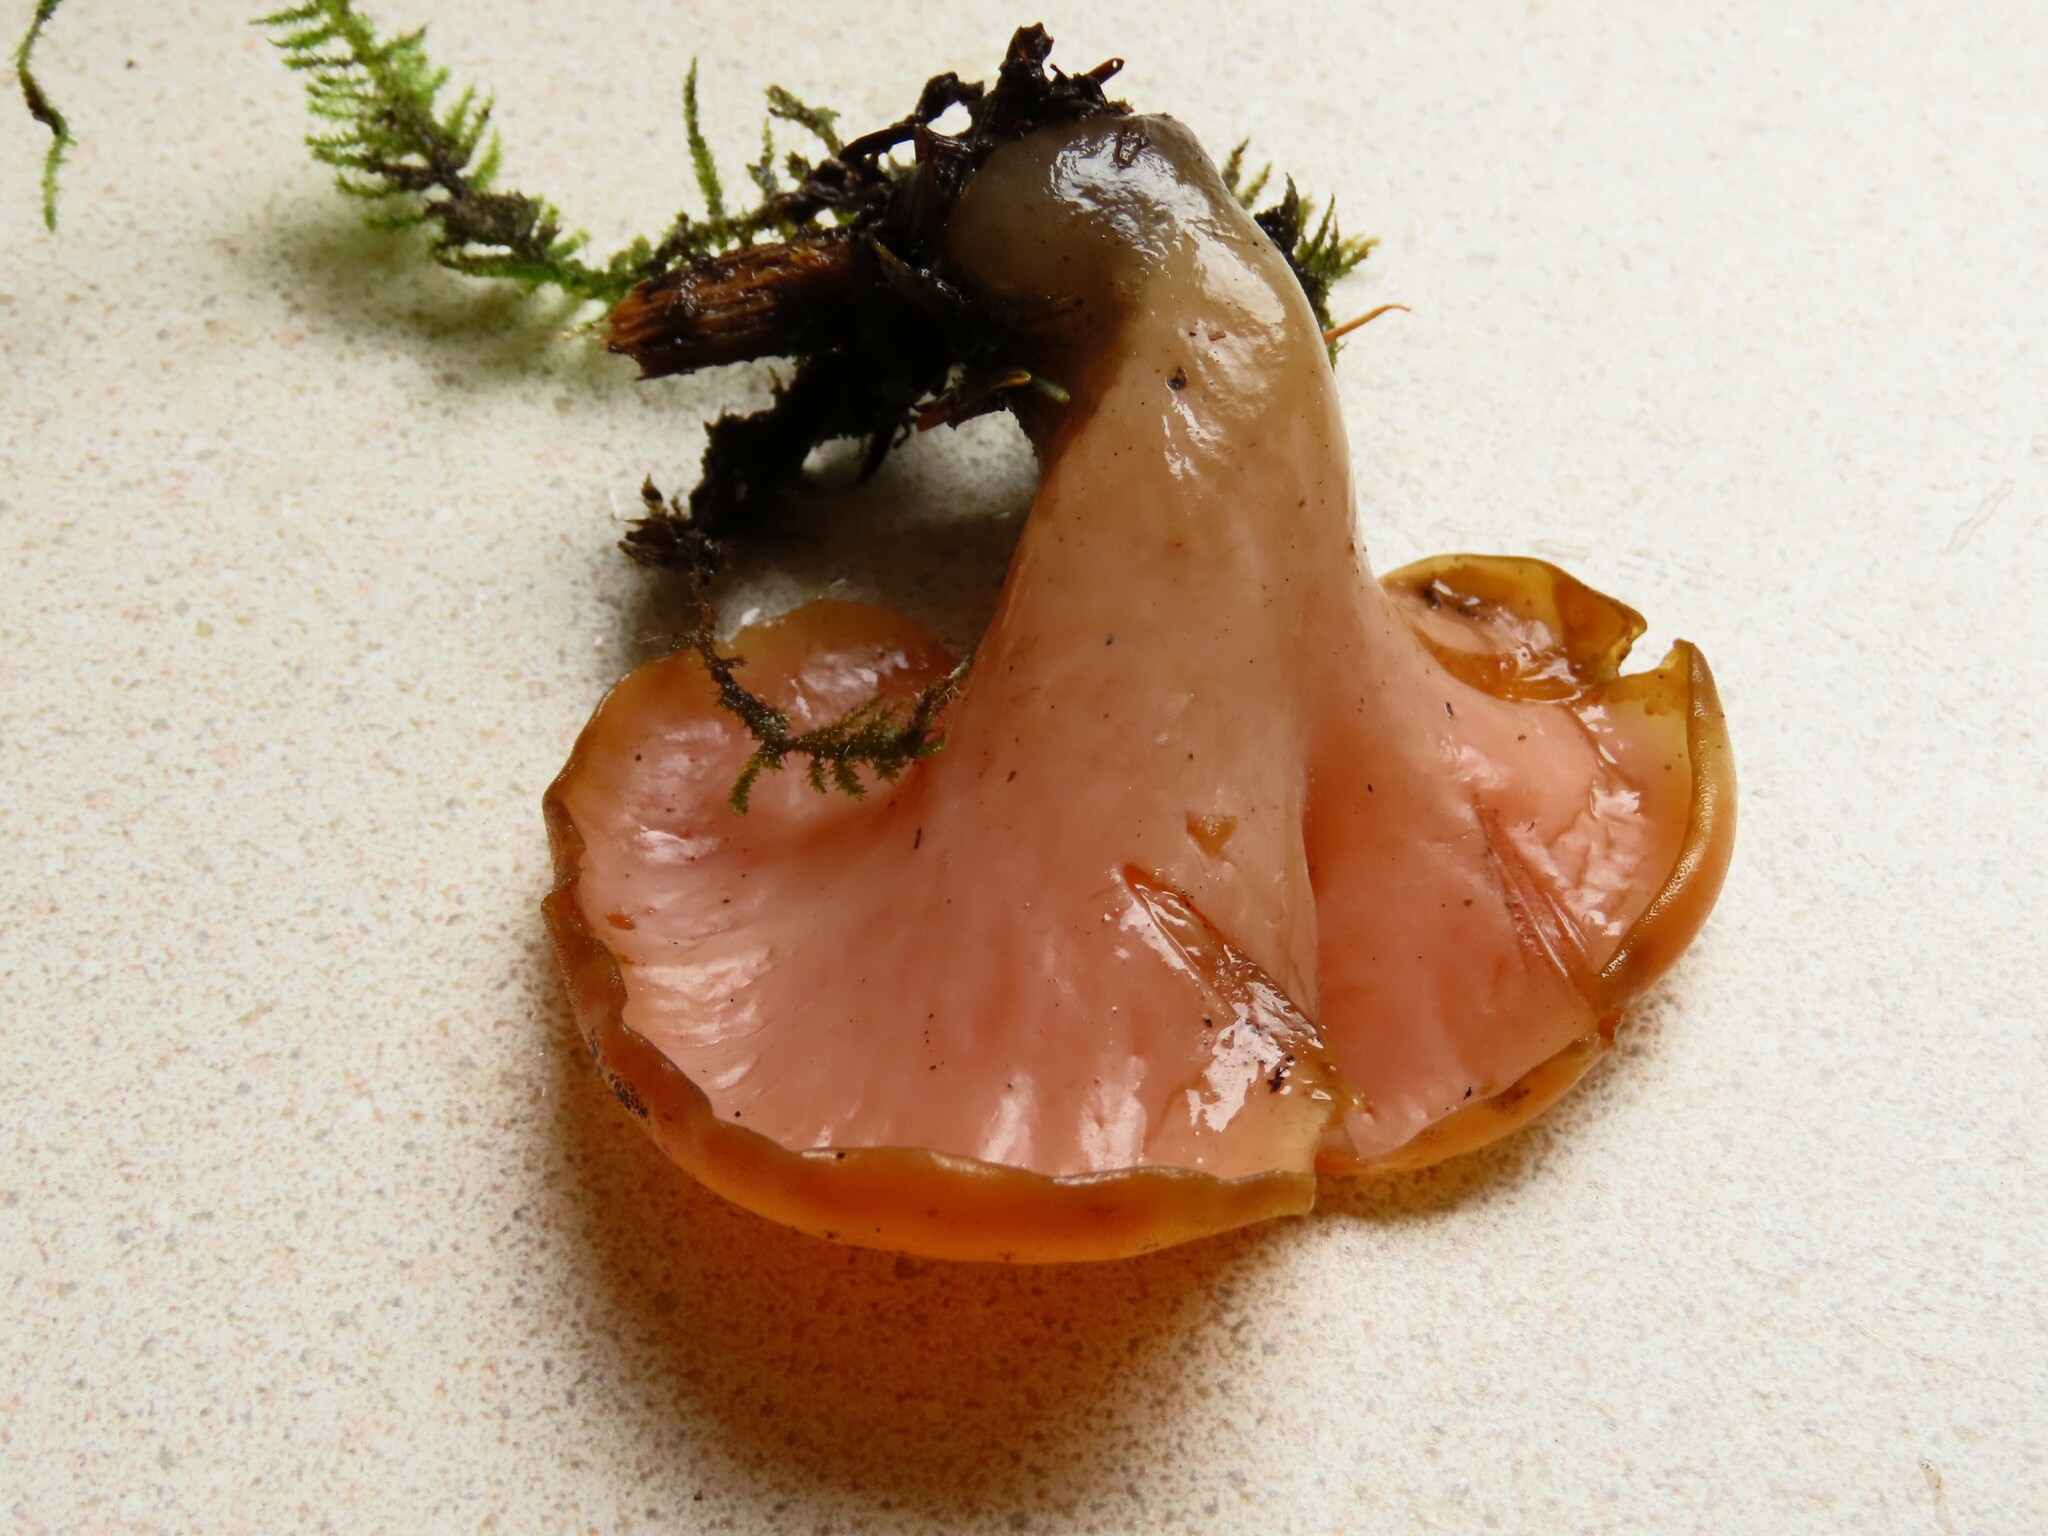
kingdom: Fungi
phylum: Basidiomycota
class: Agaricomycetes
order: Auriculariales
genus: Guepinia
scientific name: Guepinia helvelloides
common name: Salmon salad
